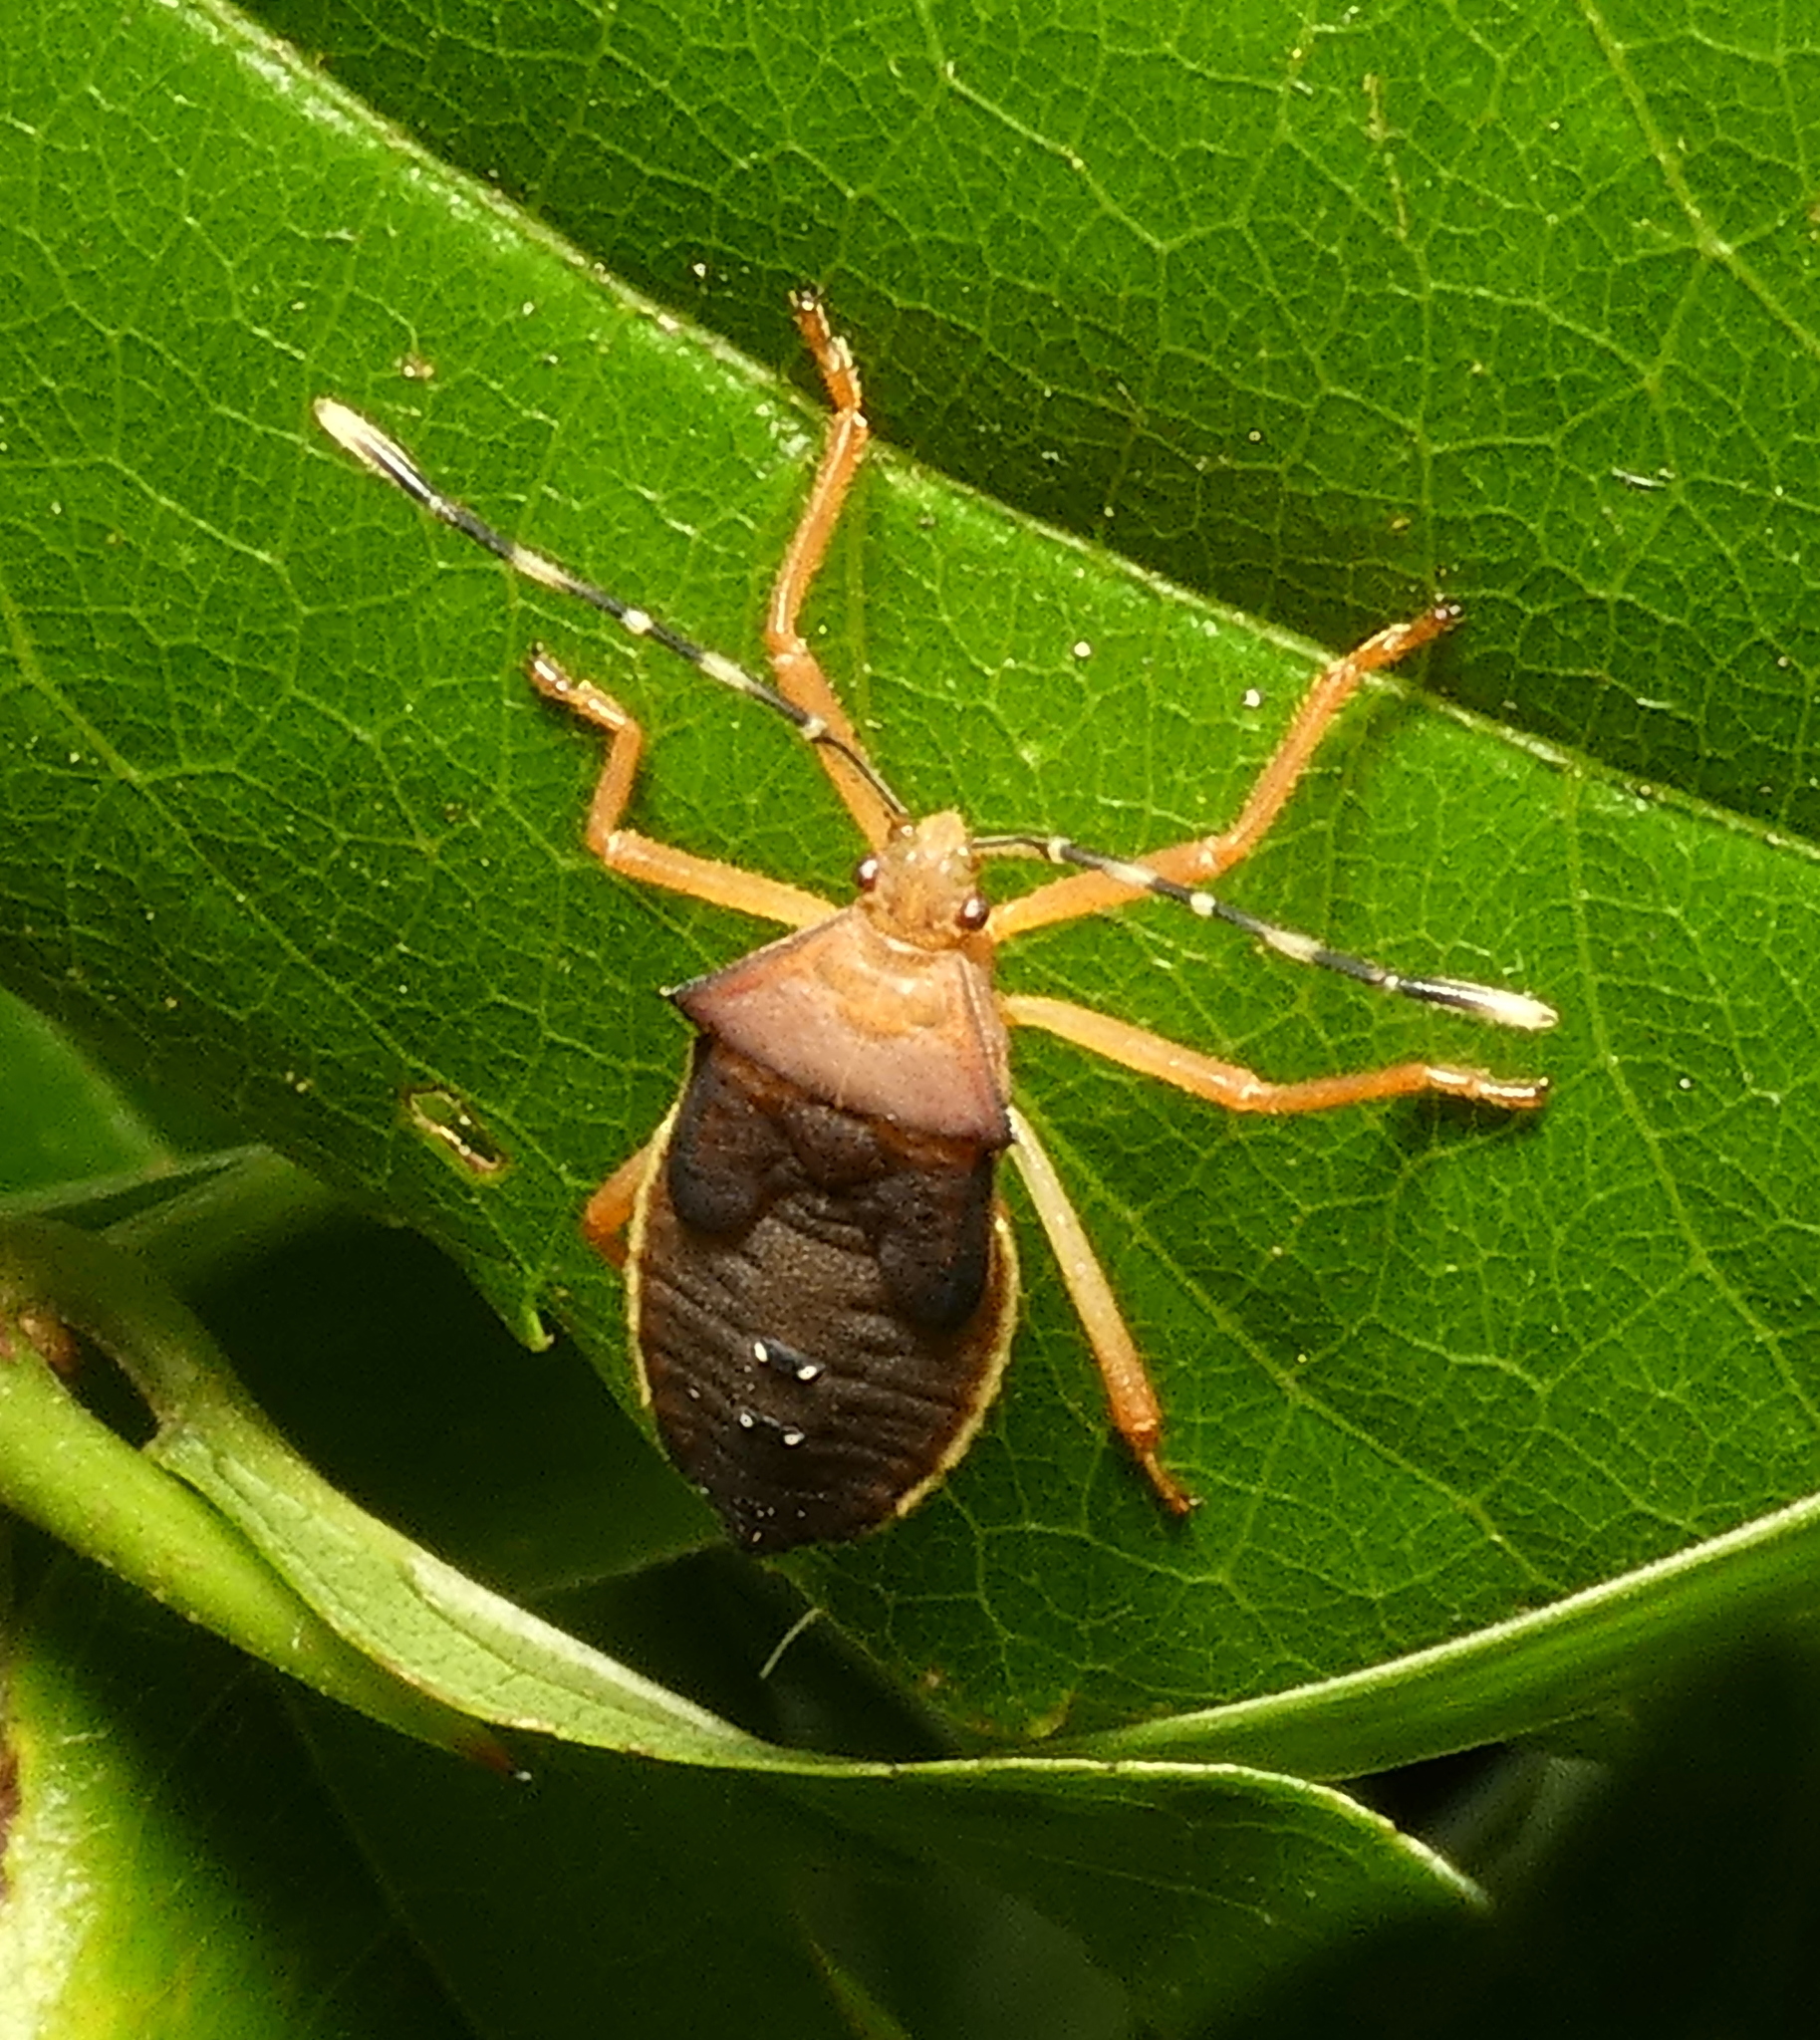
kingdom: Animalia
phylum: Arthropoda
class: Insecta
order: Hemiptera
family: Coreidae
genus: Anasa
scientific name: Anasa varicornis
